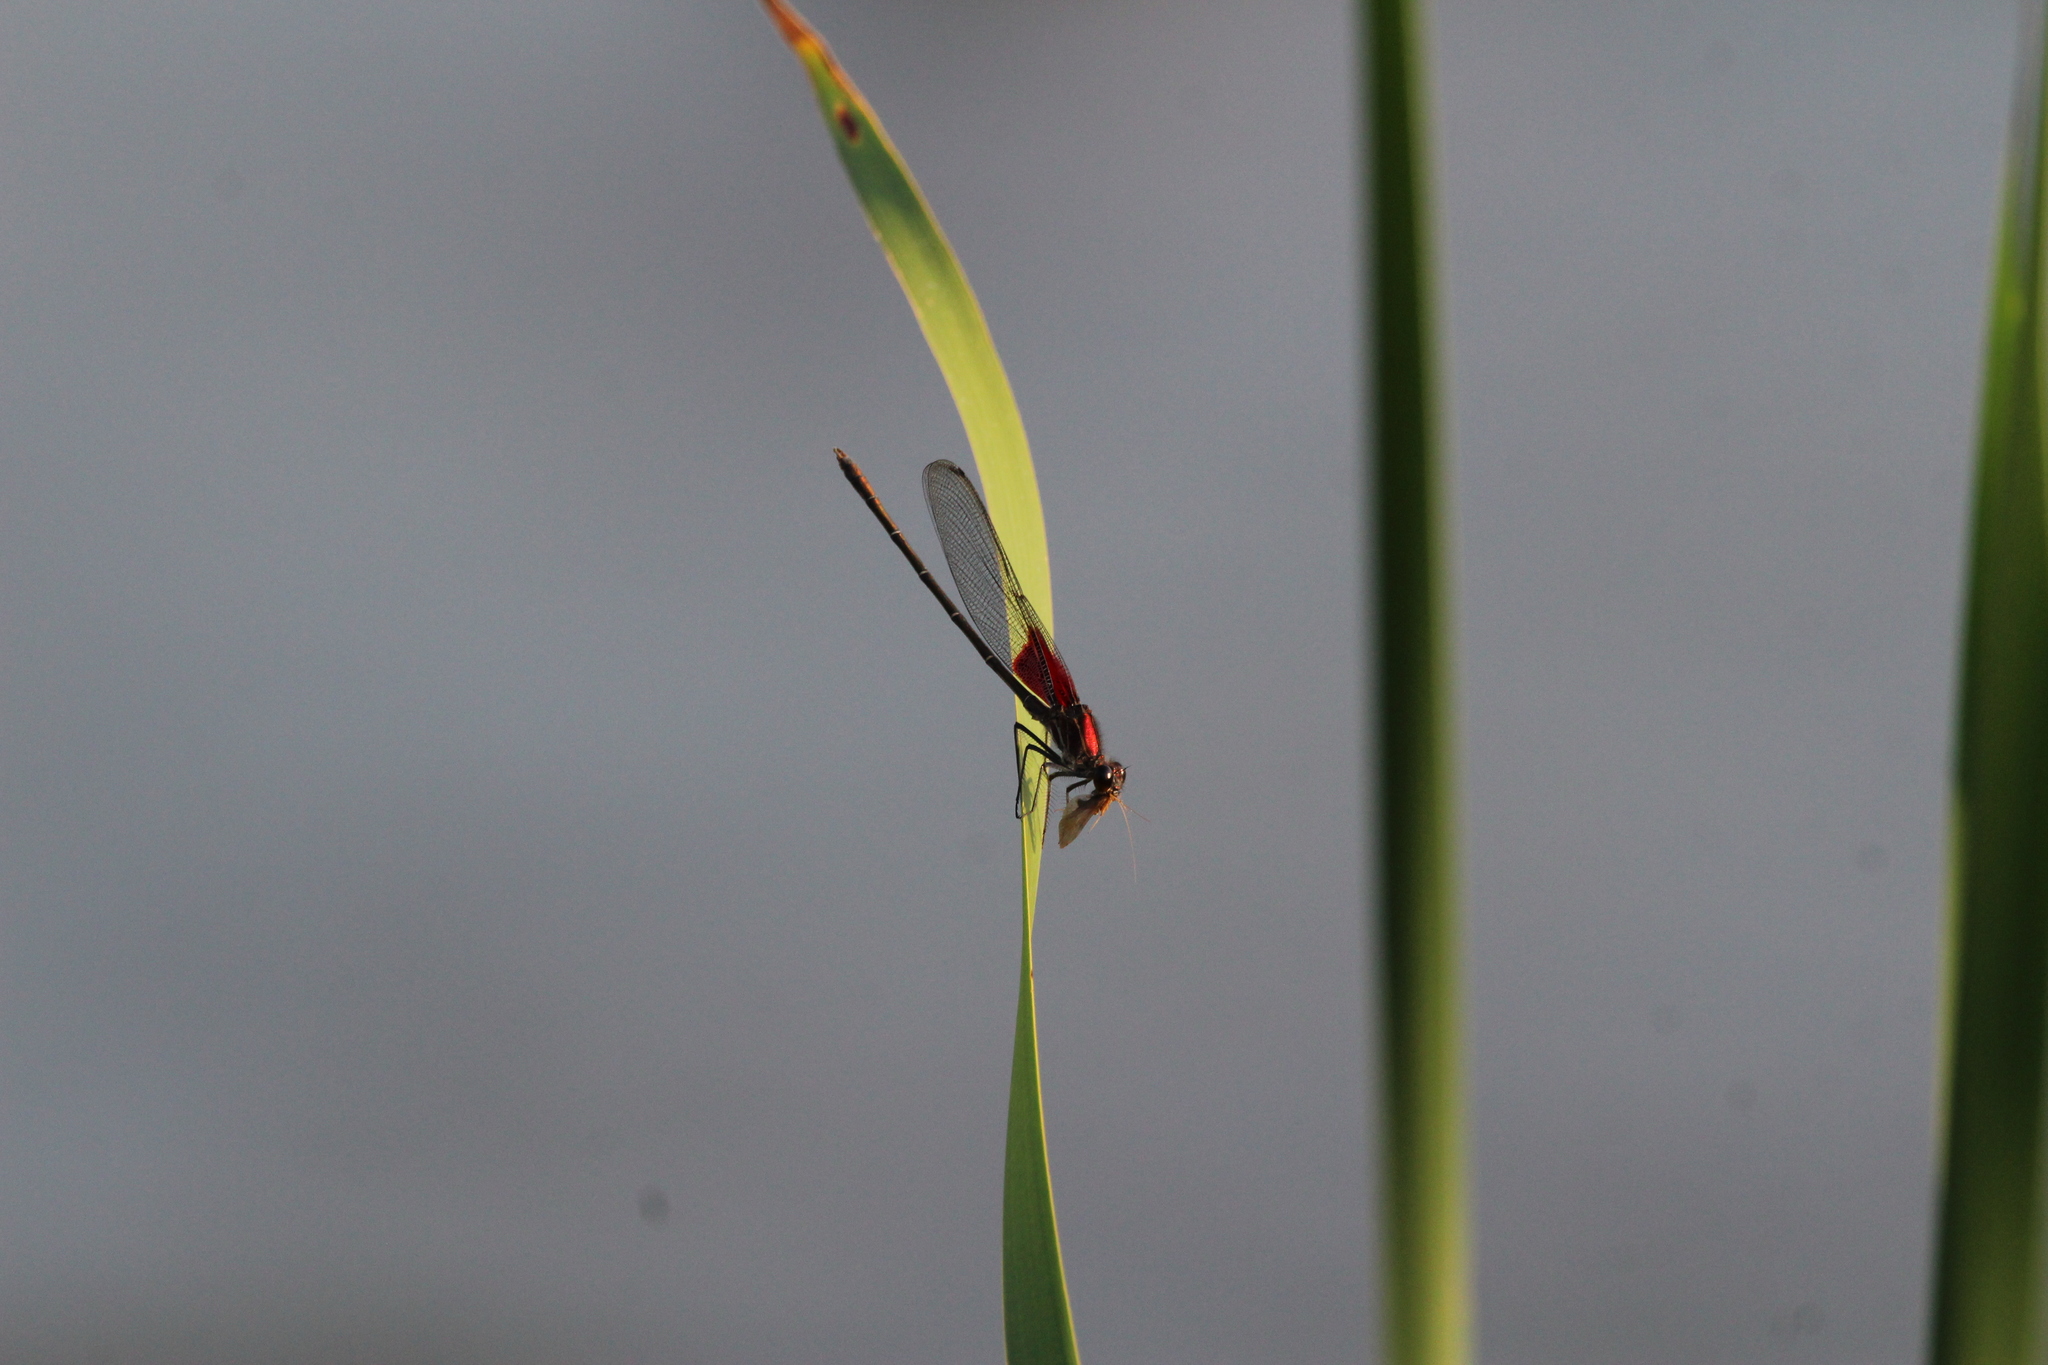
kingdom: Animalia
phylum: Arthropoda
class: Insecta
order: Odonata
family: Calopterygidae
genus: Hetaerina
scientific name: Hetaerina americana
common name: American rubyspot
